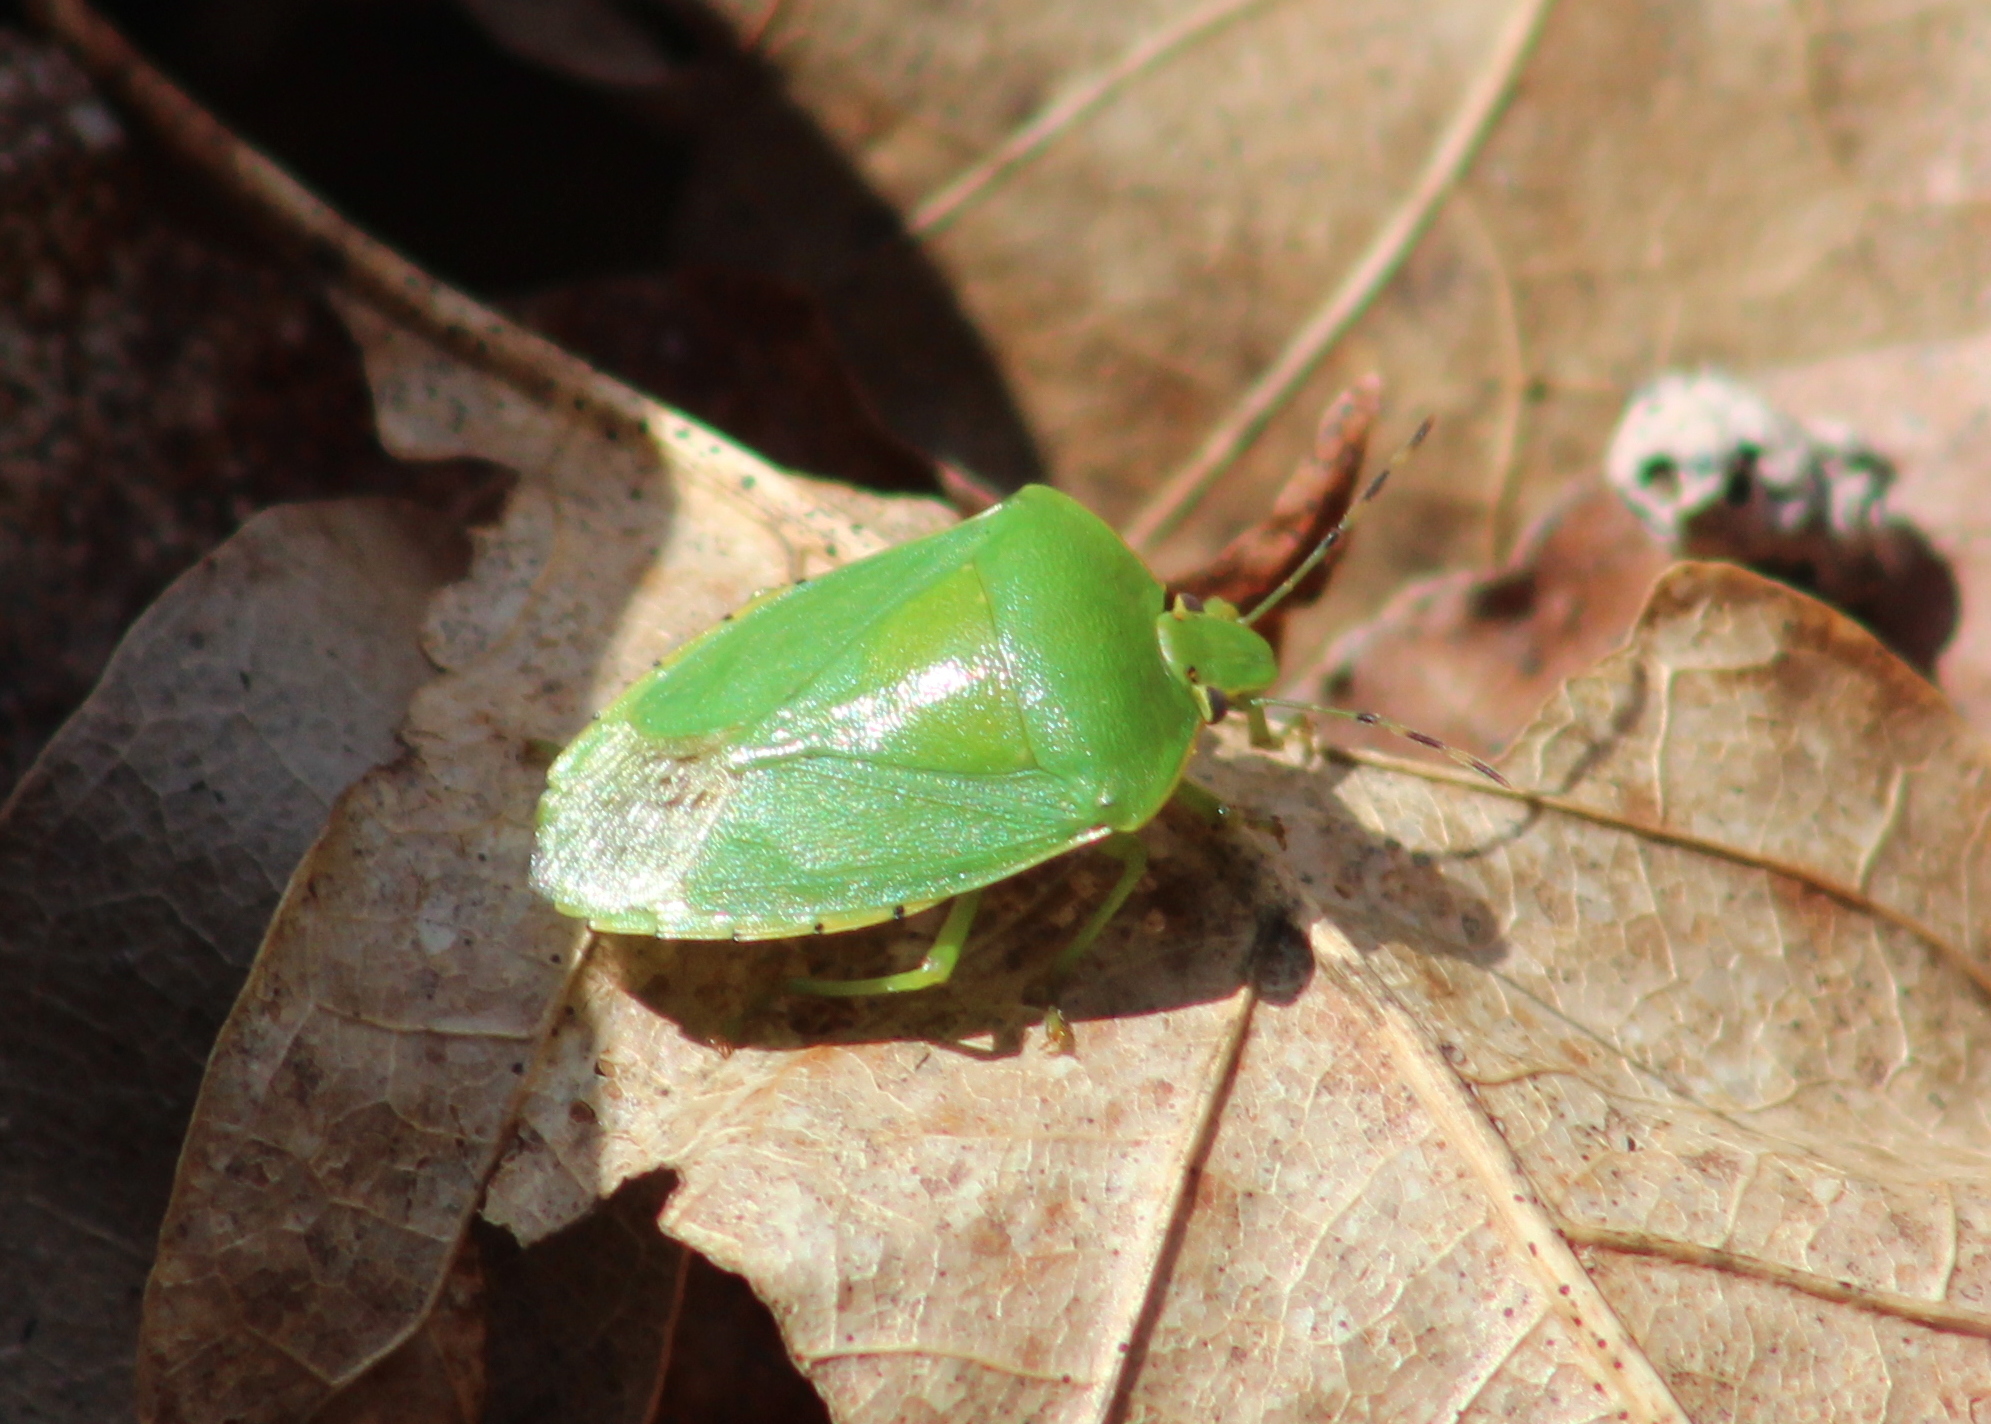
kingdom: Animalia
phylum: Arthropoda
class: Insecta
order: Hemiptera
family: Pentatomidae
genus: Chinavia
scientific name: Chinavia hilaris
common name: Green stink bug
